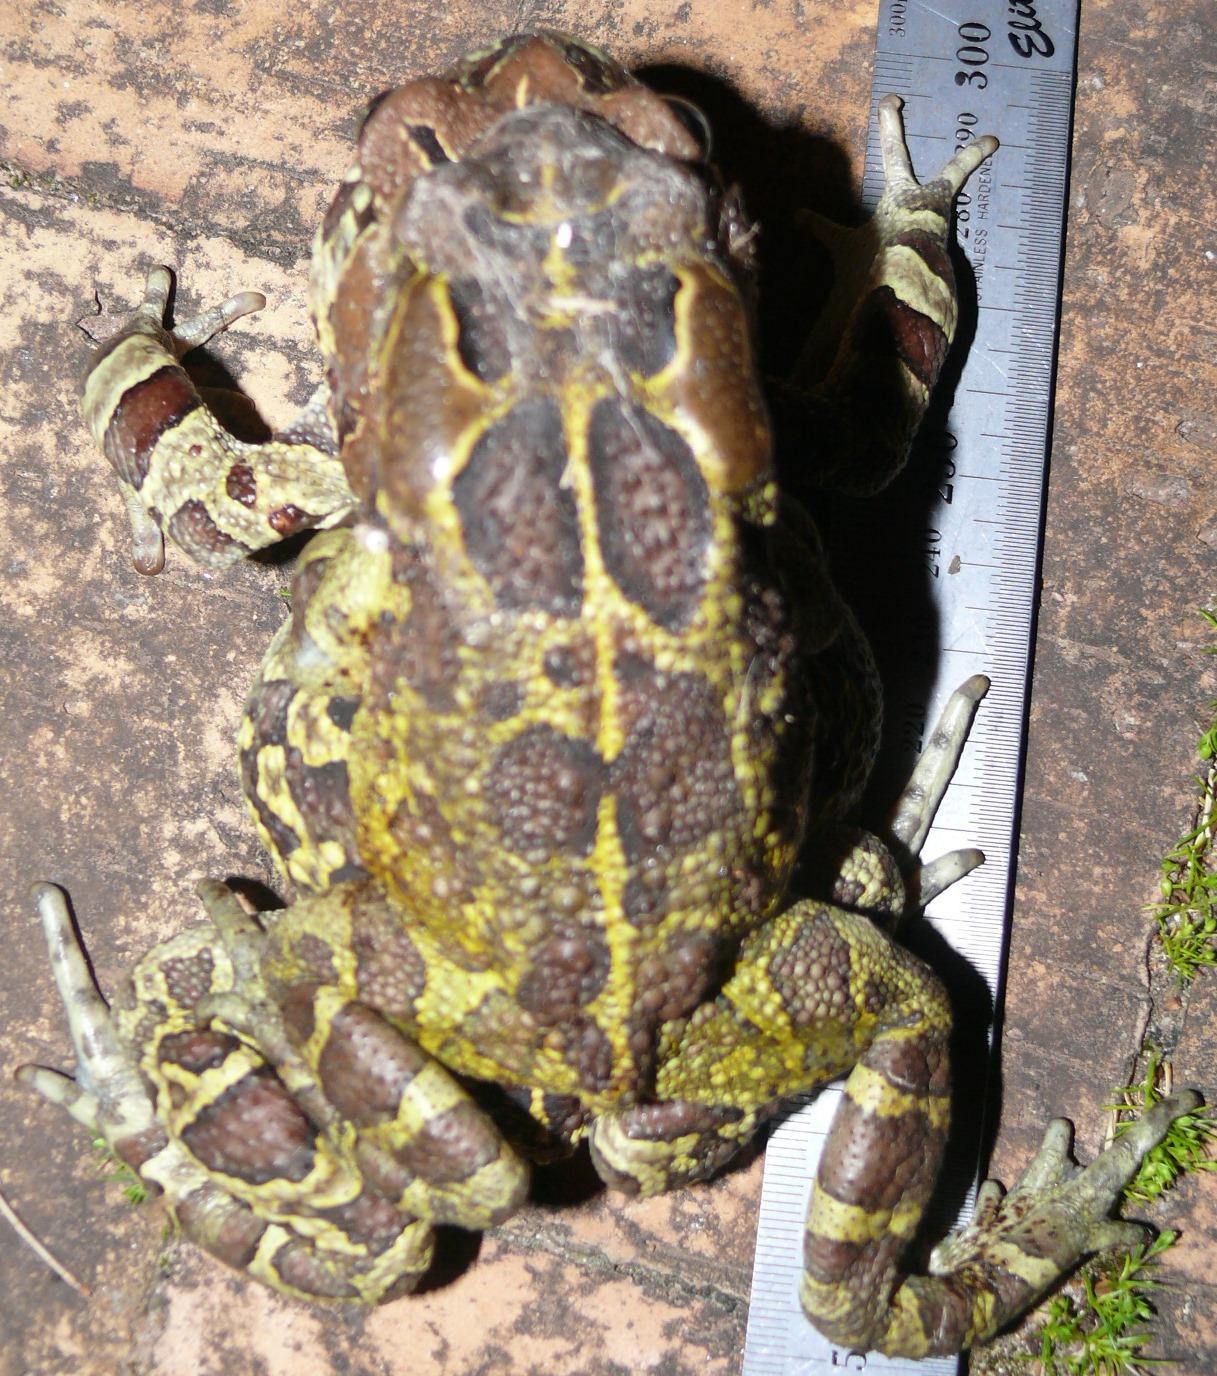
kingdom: Animalia
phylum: Chordata
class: Amphibia
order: Anura
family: Bufonidae
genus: Sclerophrys
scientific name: Sclerophrys pantherina
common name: Panther toad
